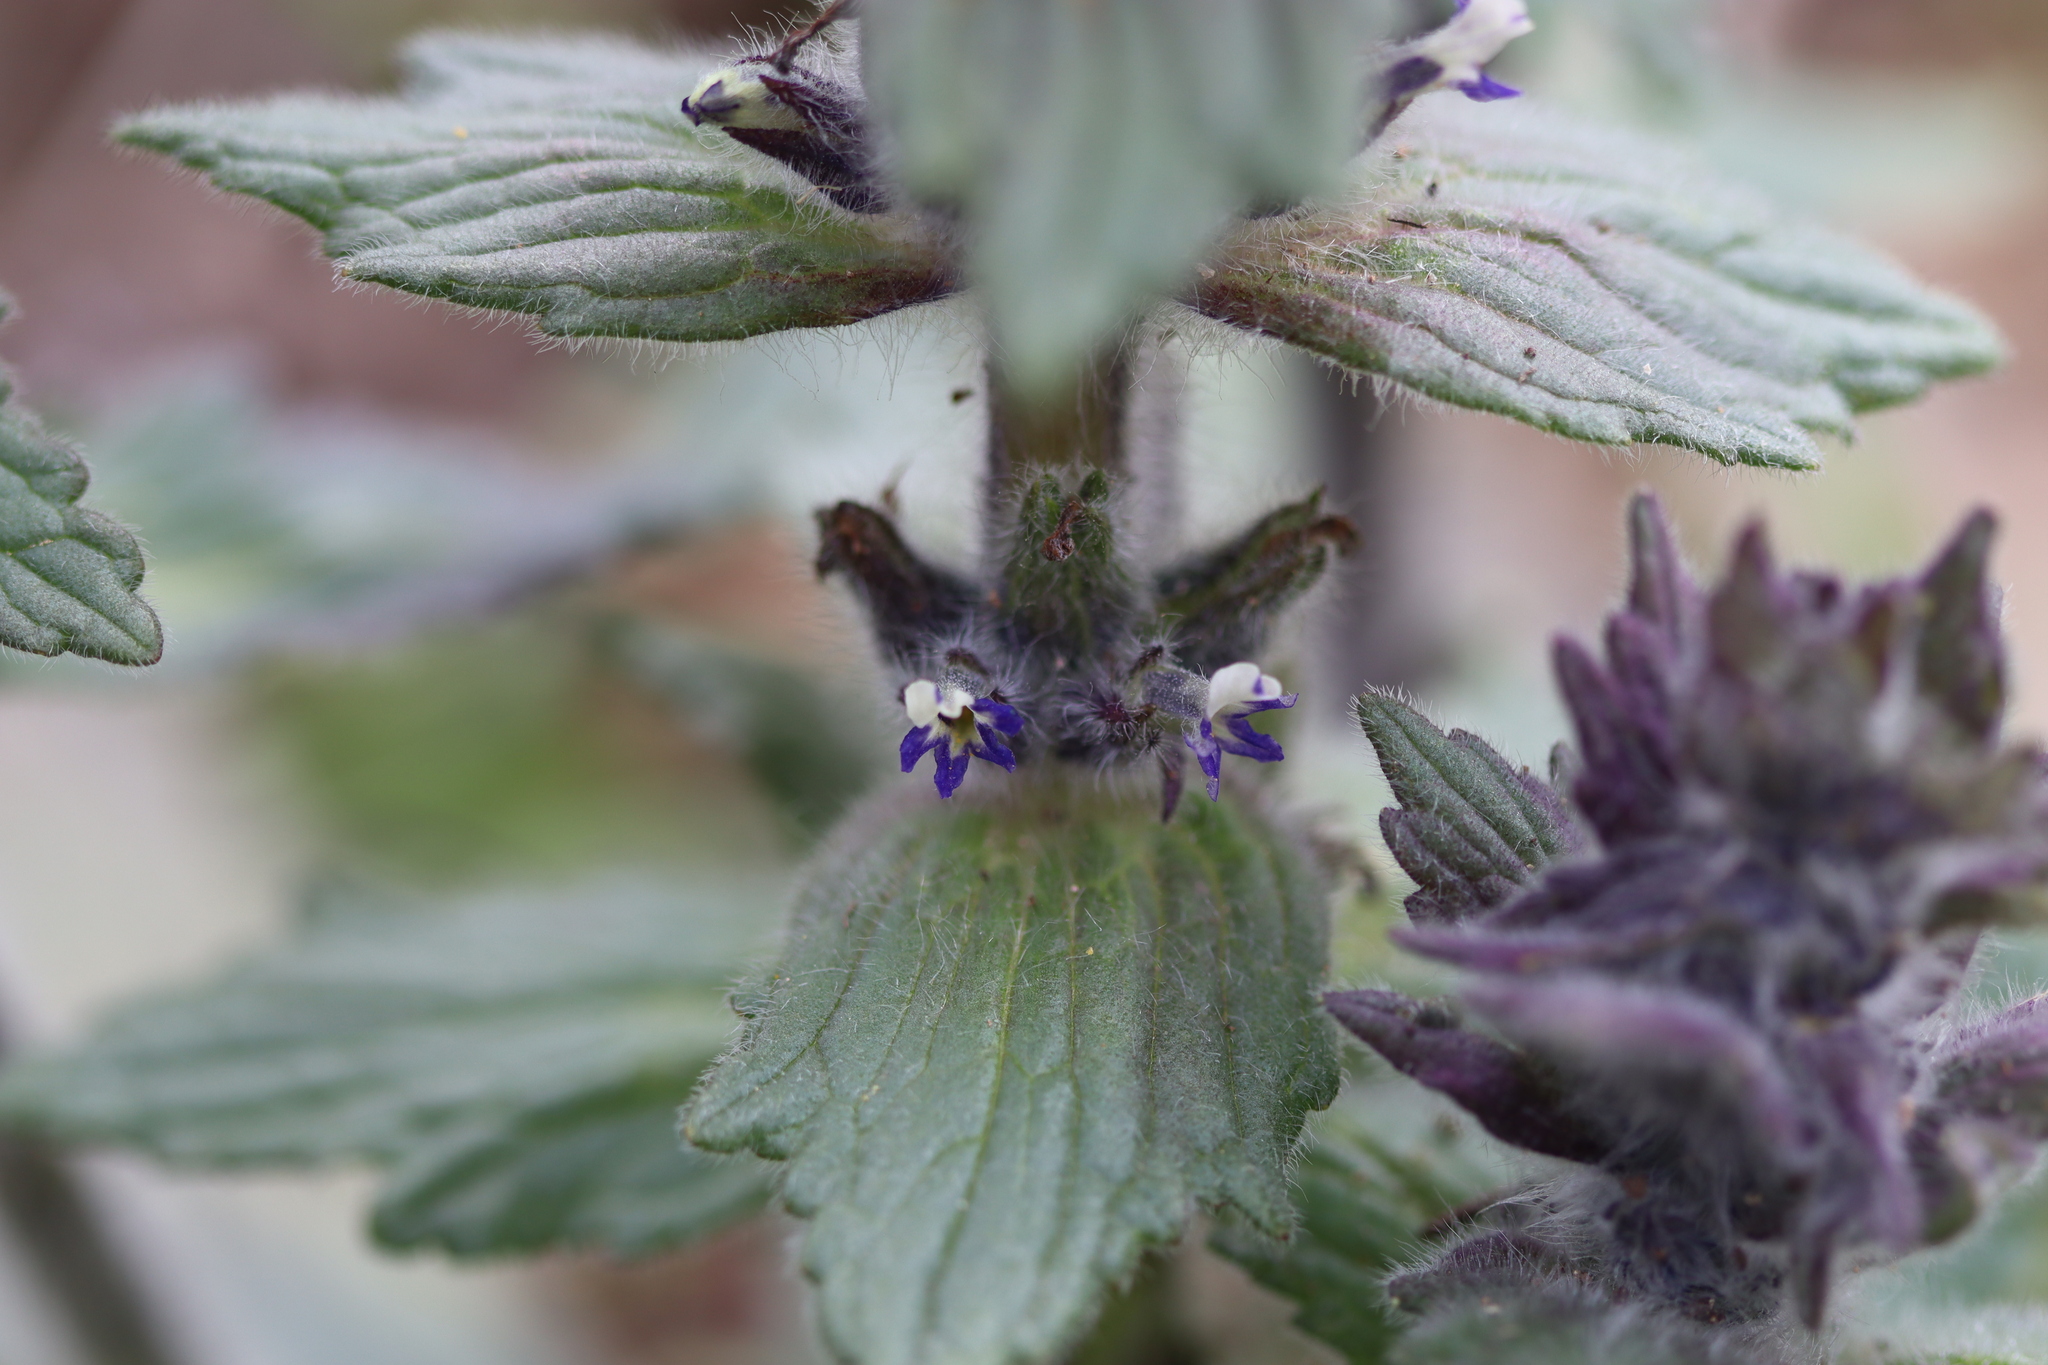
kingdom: Plantae
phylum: Tracheophyta
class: Magnoliopsida
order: Lamiales
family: Lamiaceae
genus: Ajuga
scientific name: Ajuga orientalis
